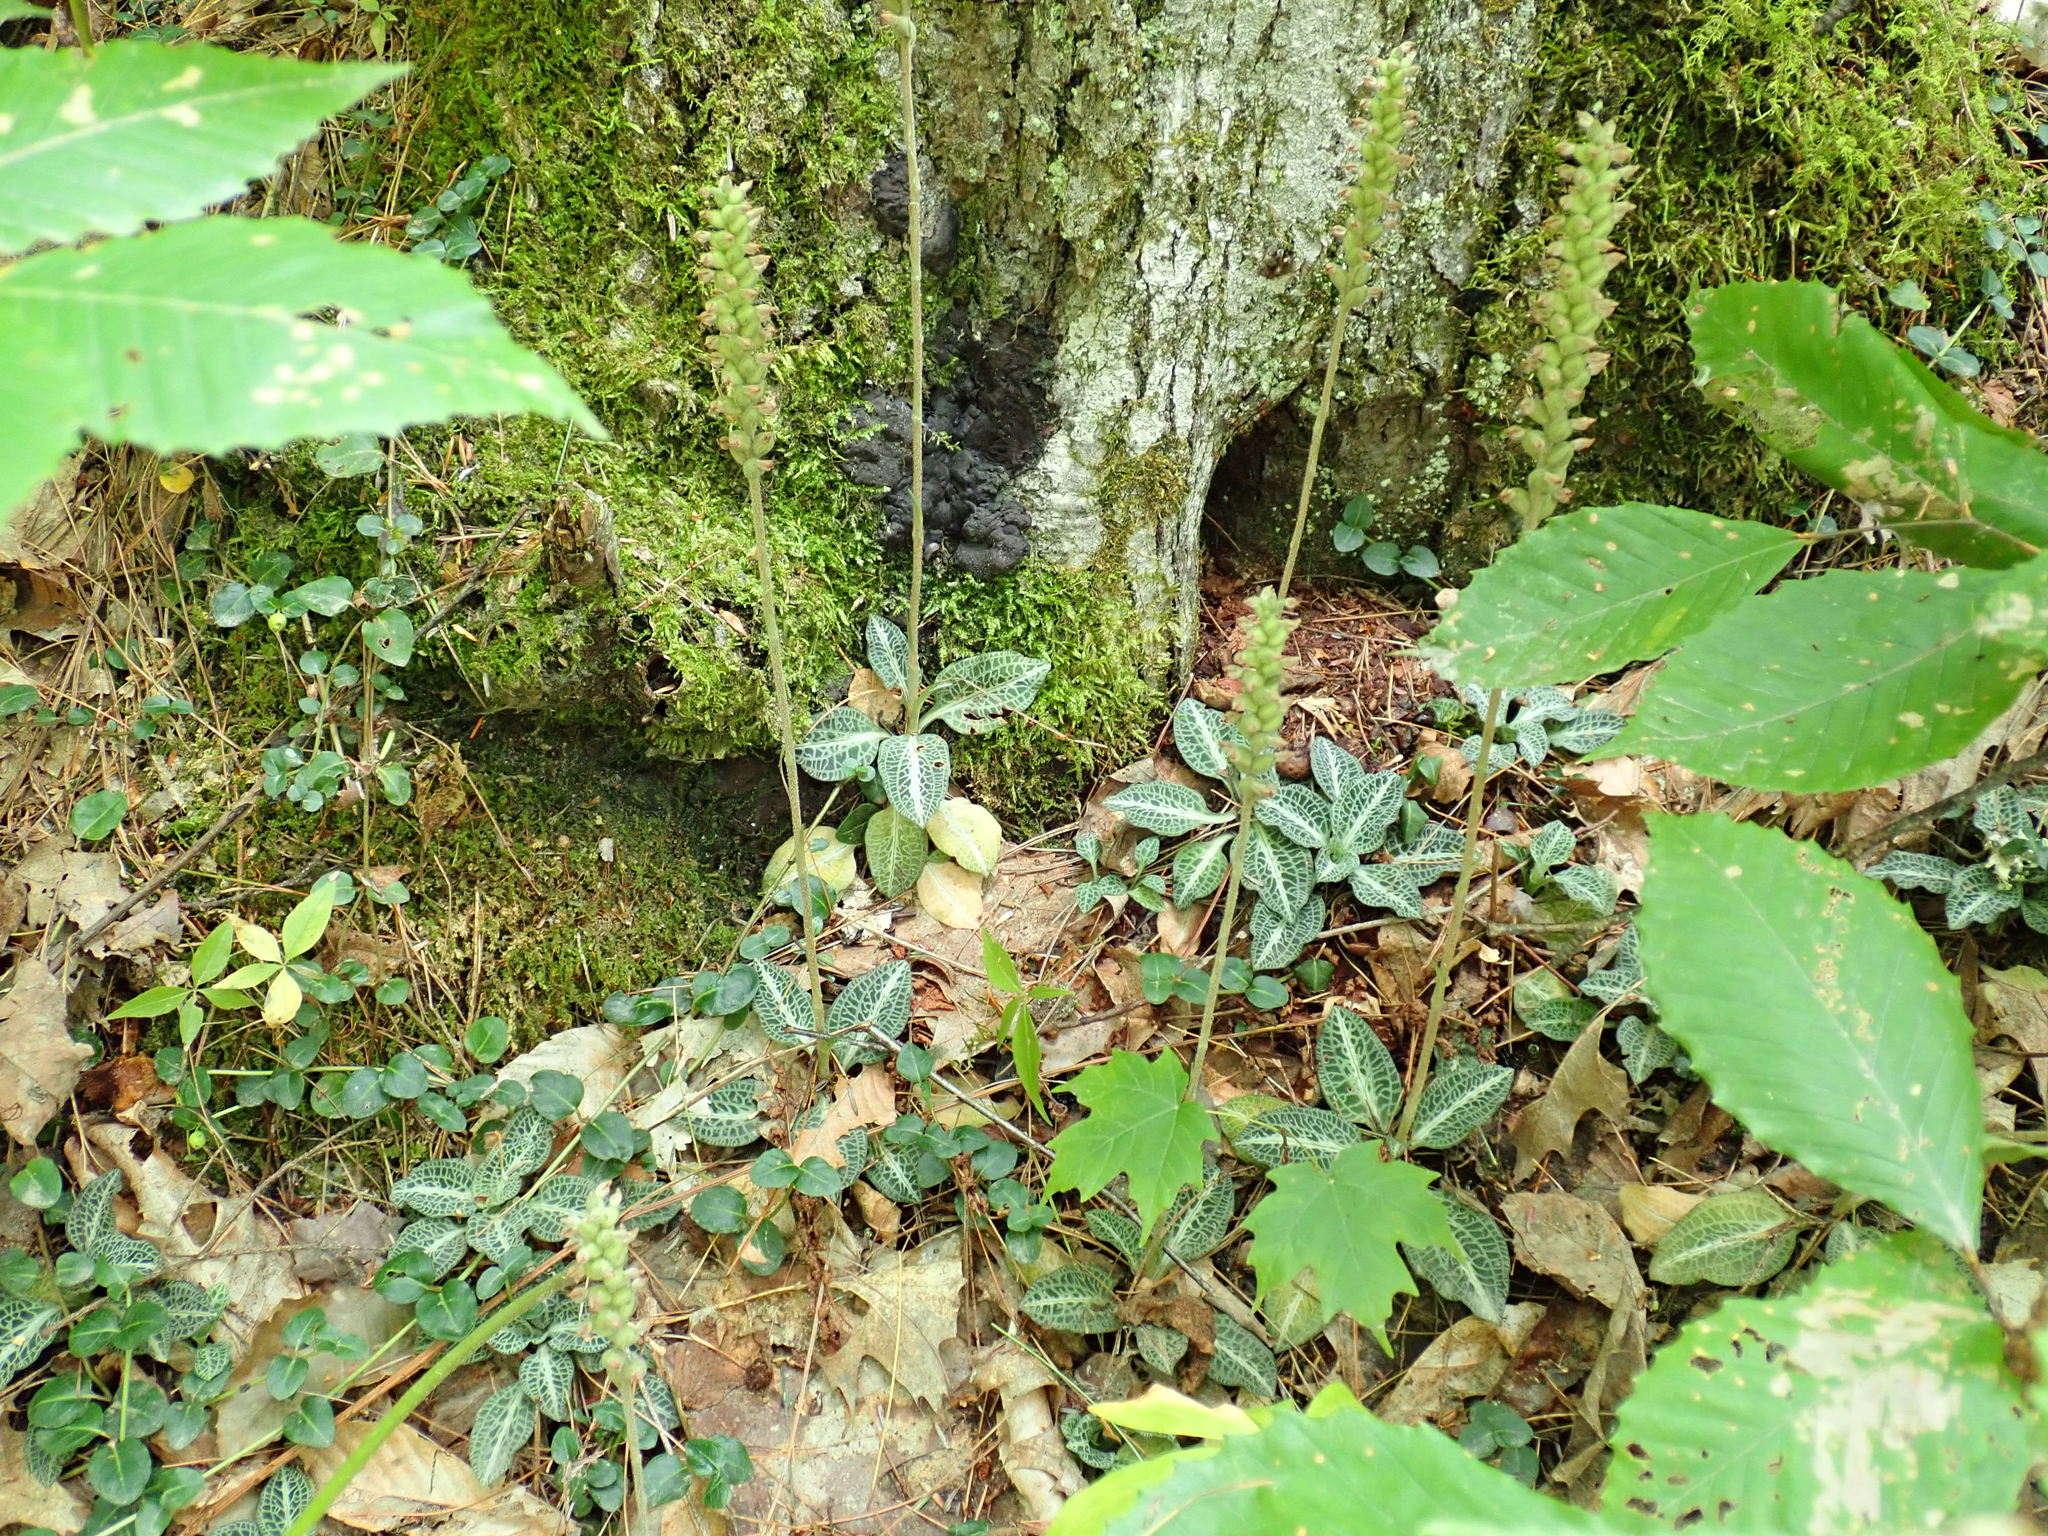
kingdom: Plantae
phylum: Tracheophyta
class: Liliopsida
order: Asparagales
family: Orchidaceae
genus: Goodyera
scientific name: Goodyera pubescens
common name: Downy rattlesnake-plantain
